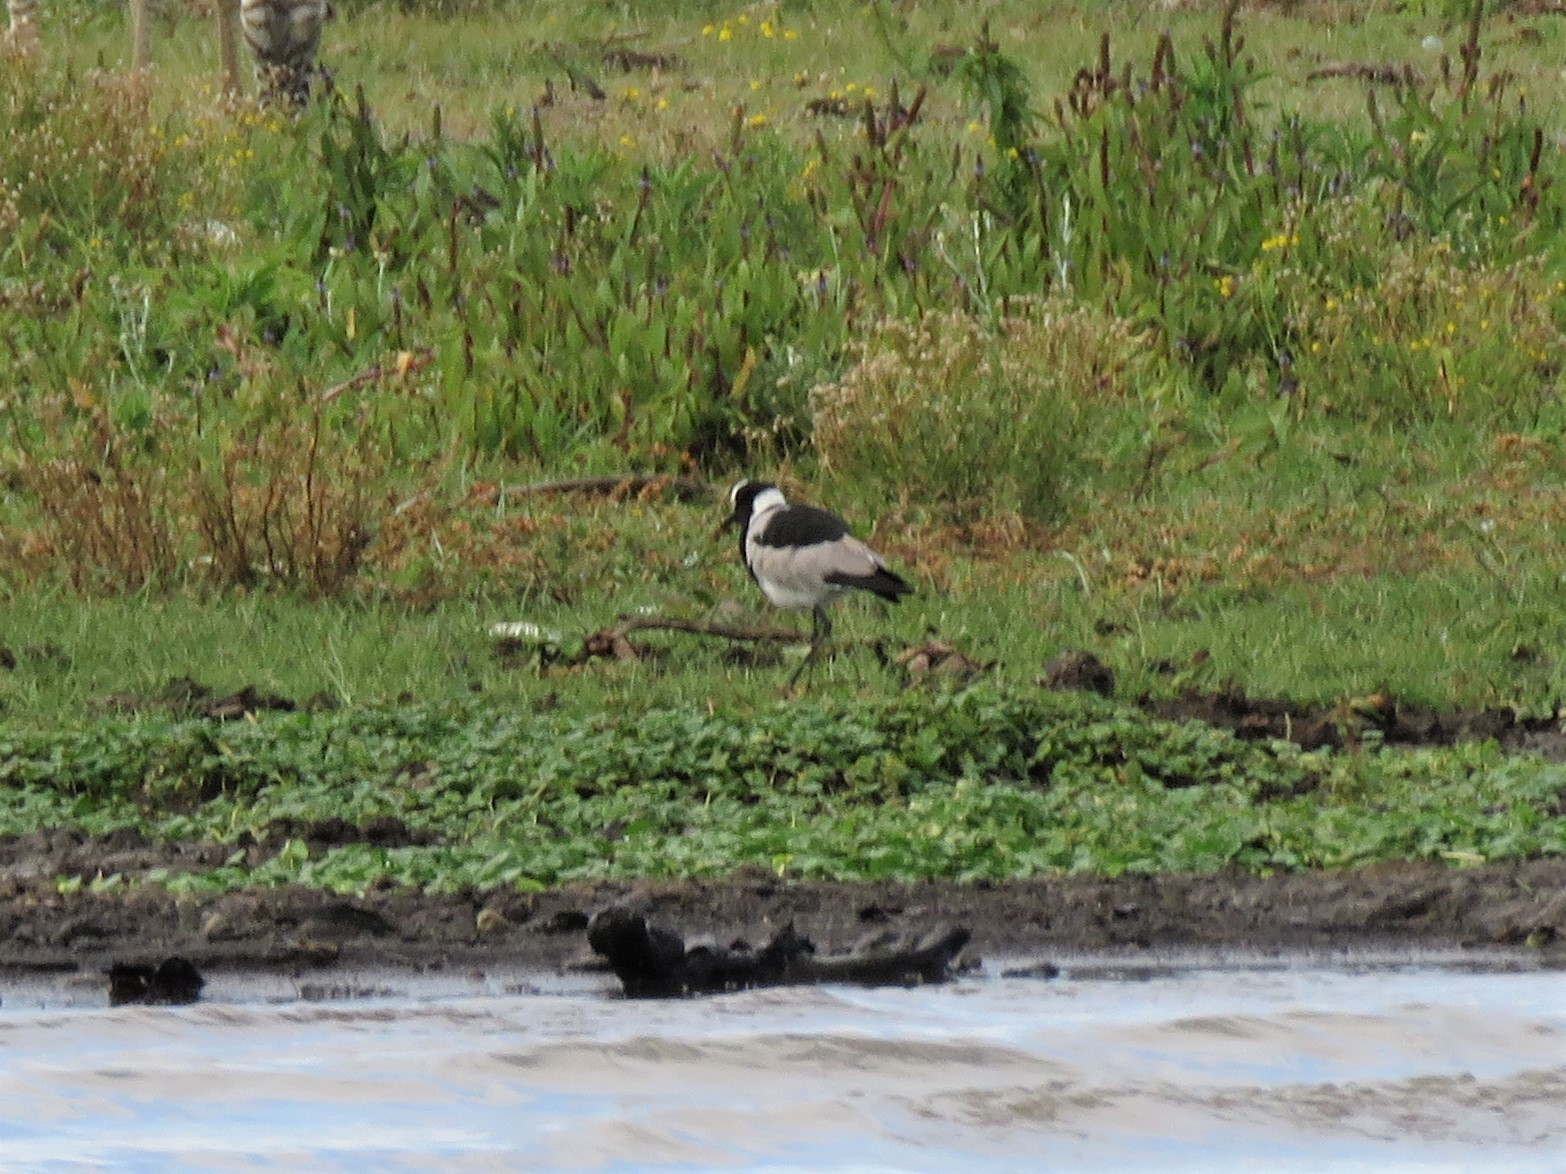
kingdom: Animalia
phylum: Chordata
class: Aves
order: Charadriiformes
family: Charadriidae
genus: Vanellus
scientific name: Vanellus armatus
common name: Blacksmith lapwing
